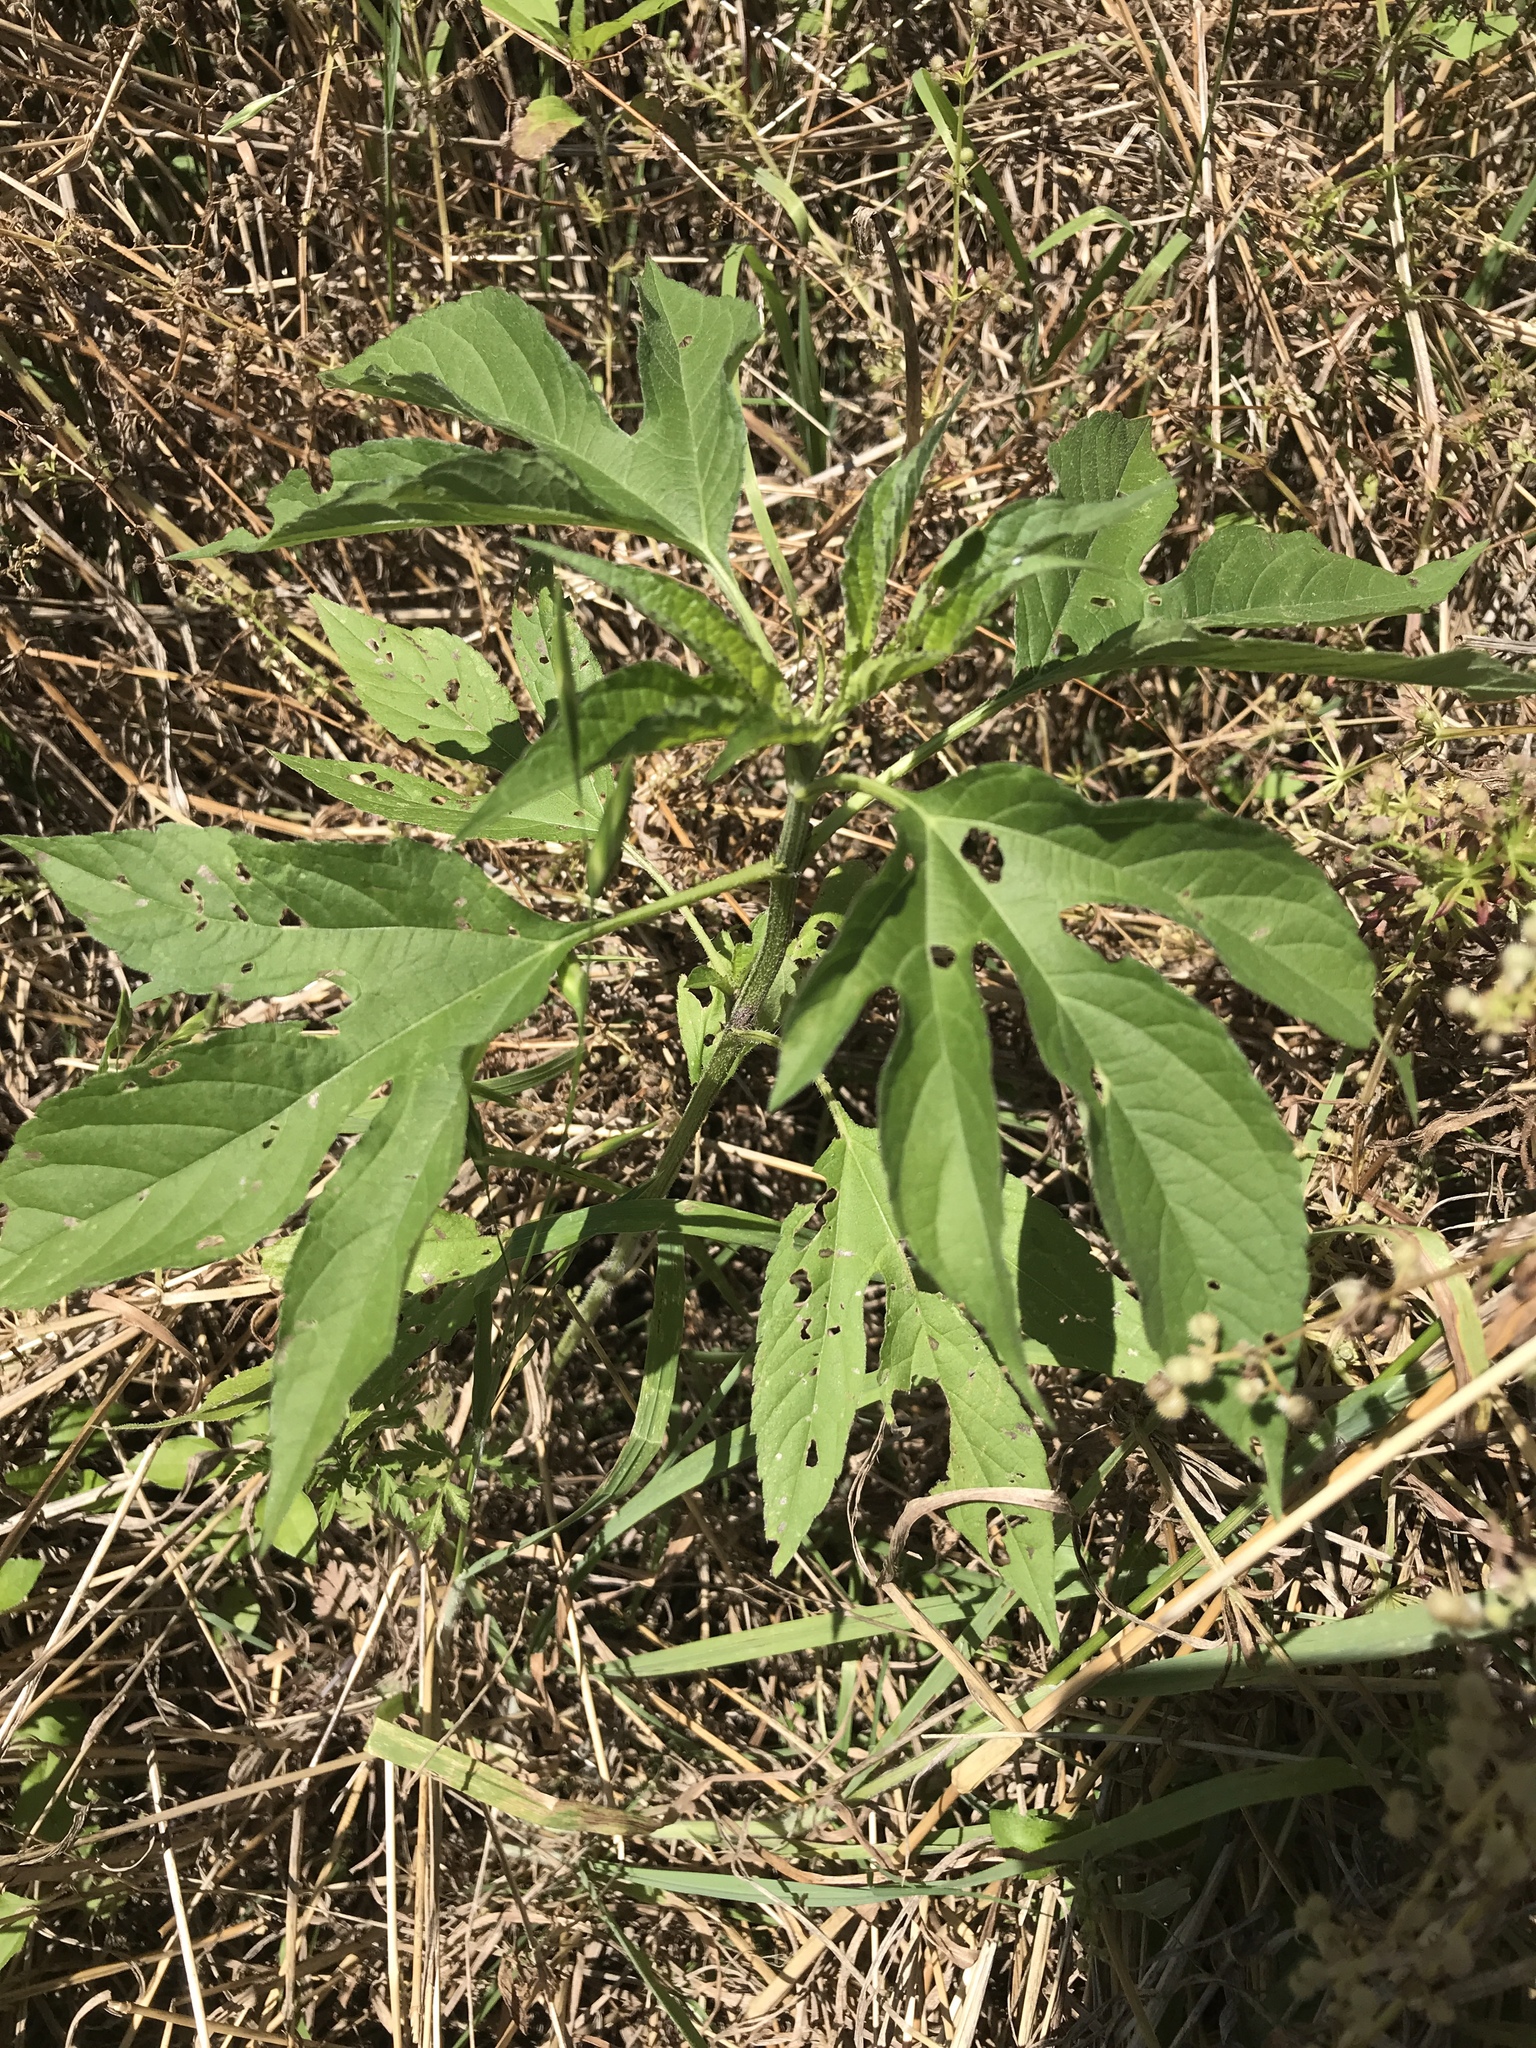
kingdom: Plantae
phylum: Tracheophyta
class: Magnoliopsida
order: Asterales
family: Asteraceae
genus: Ambrosia
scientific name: Ambrosia trifida
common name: Giant ragweed
